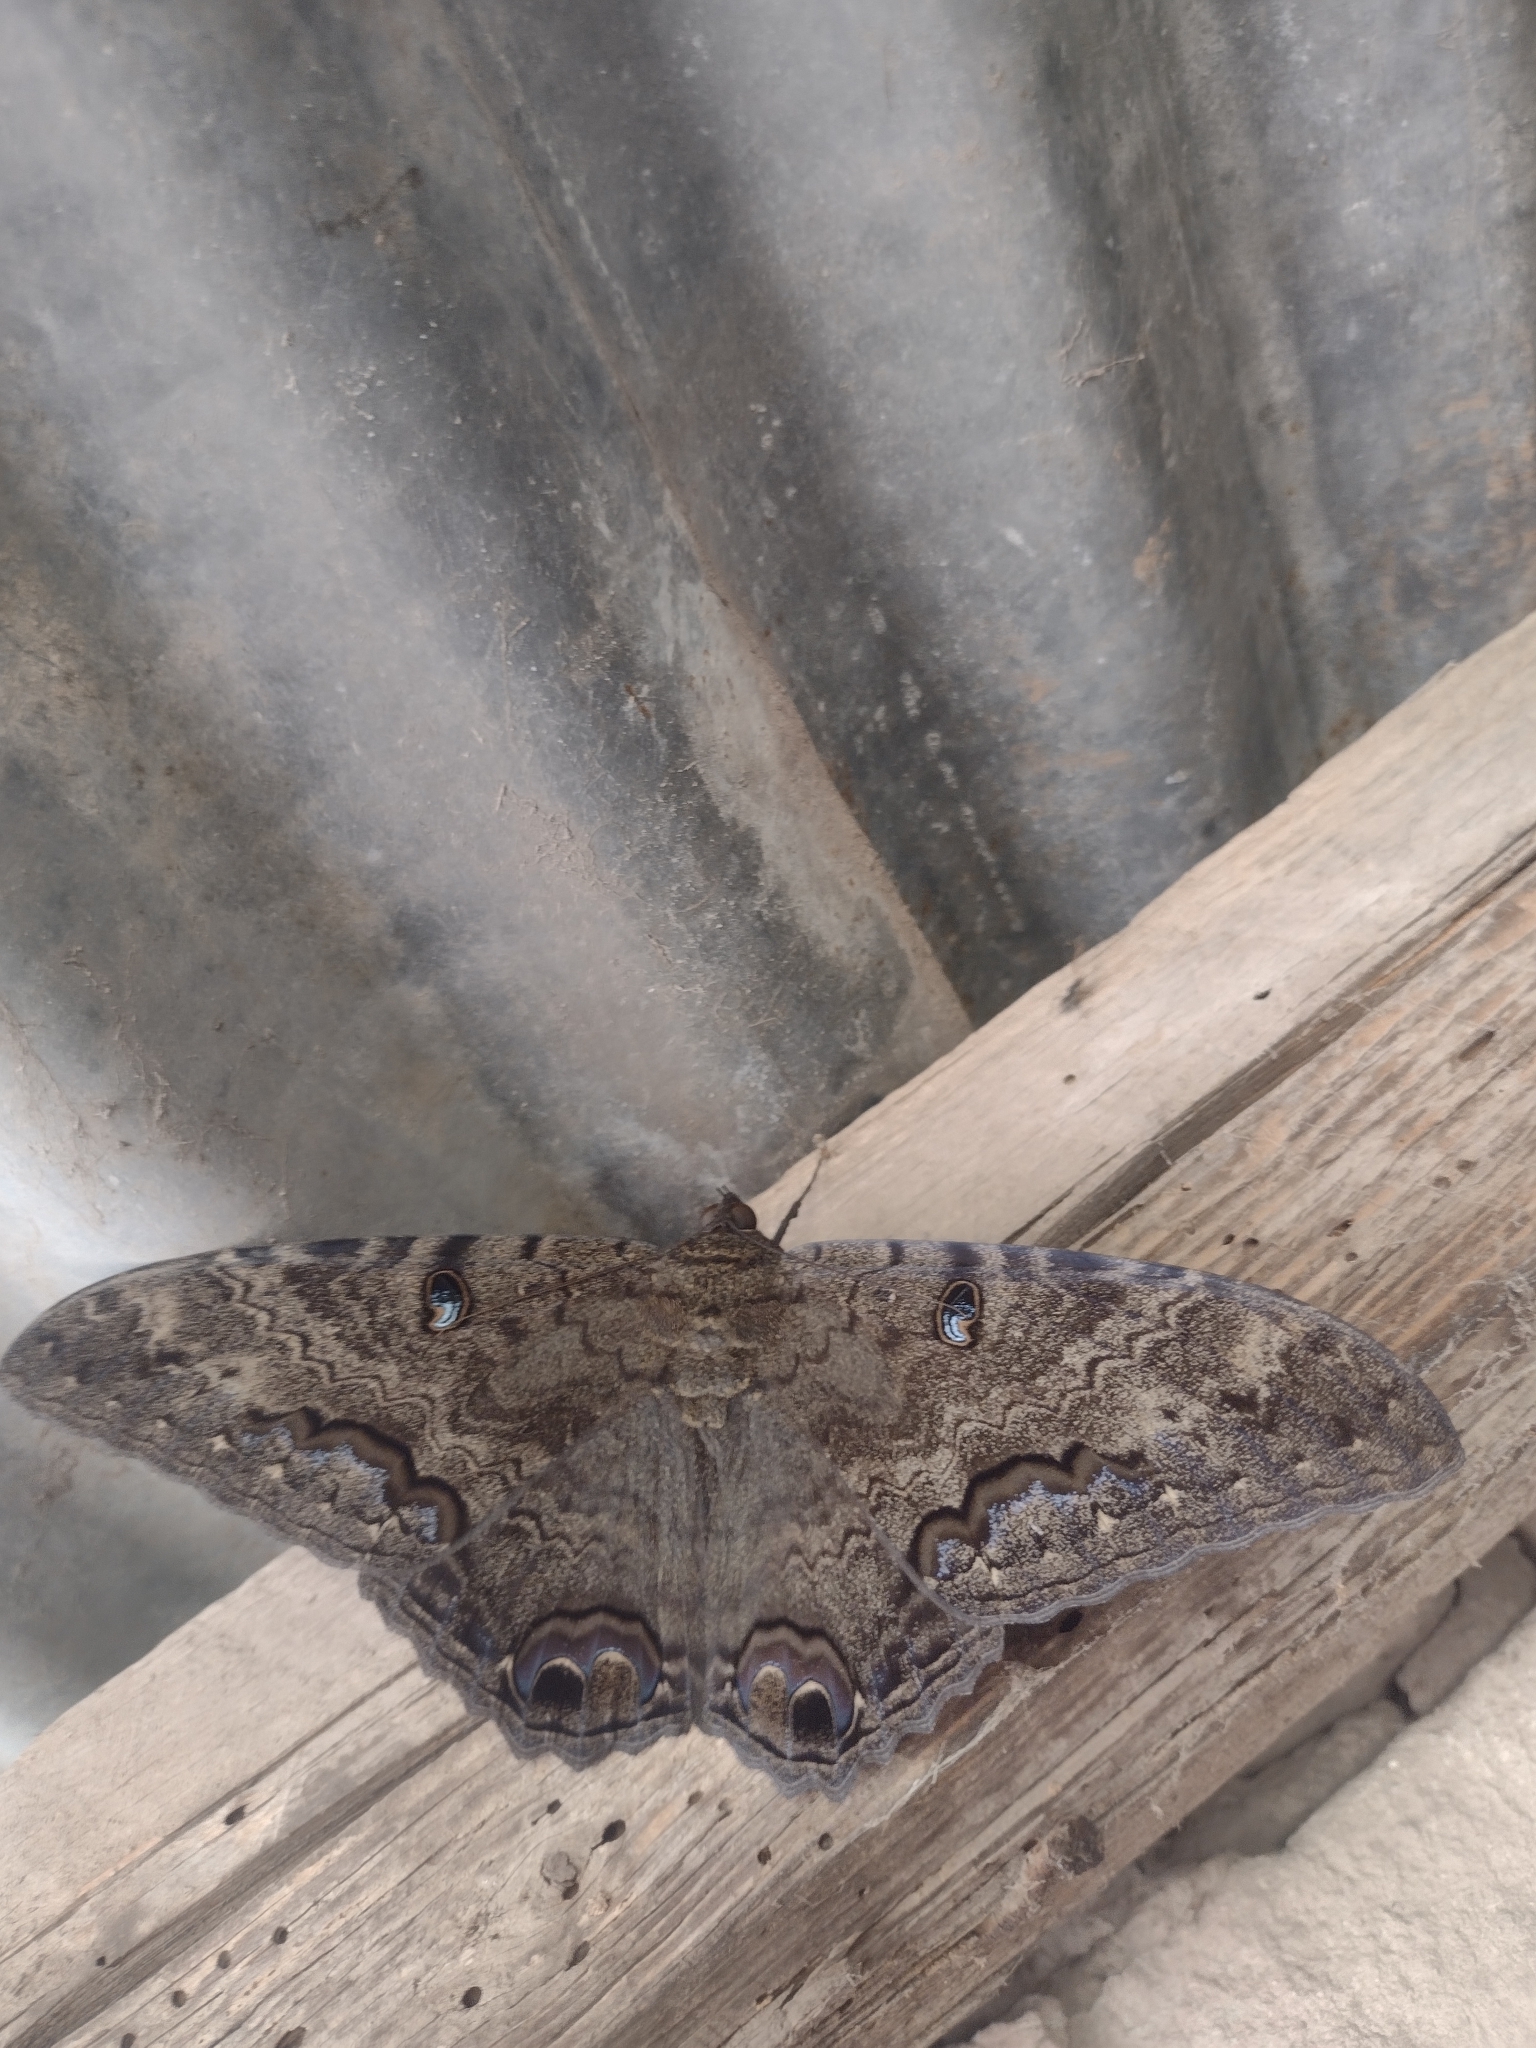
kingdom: Animalia
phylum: Arthropoda
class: Insecta
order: Lepidoptera
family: Erebidae
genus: Ascalapha
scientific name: Ascalapha odorata
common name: Black witch
